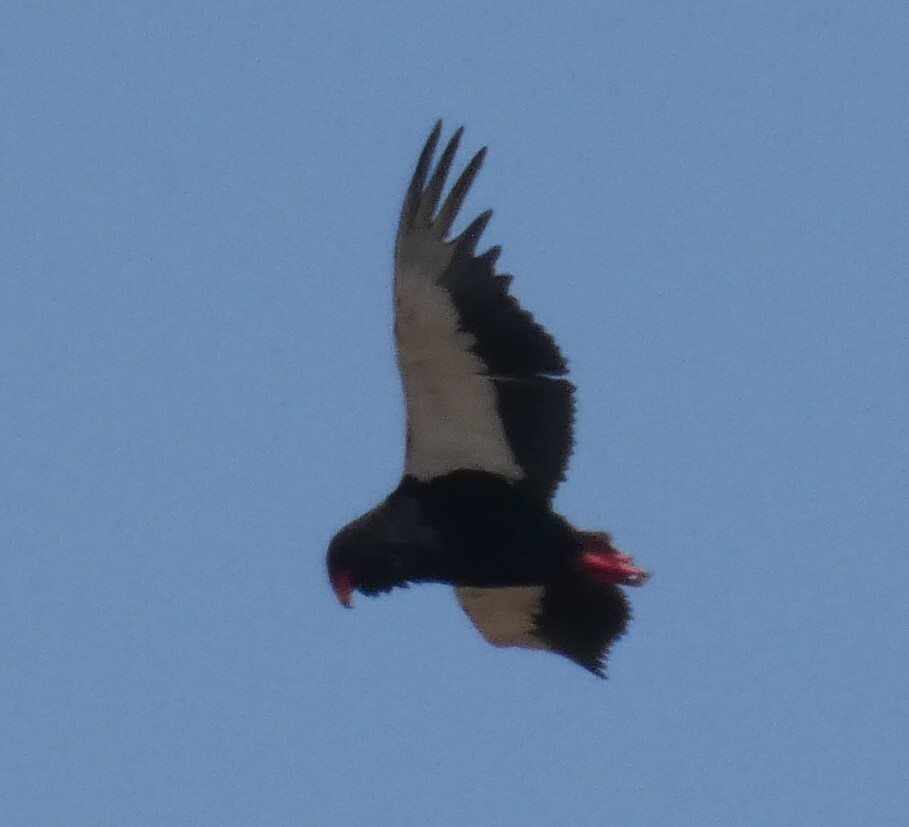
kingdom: Animalia
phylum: Chordata
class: Aves
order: Accipitriformes
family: Accipitridae
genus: Terathopius
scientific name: Terathopius ecaudatus
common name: Bateleur
